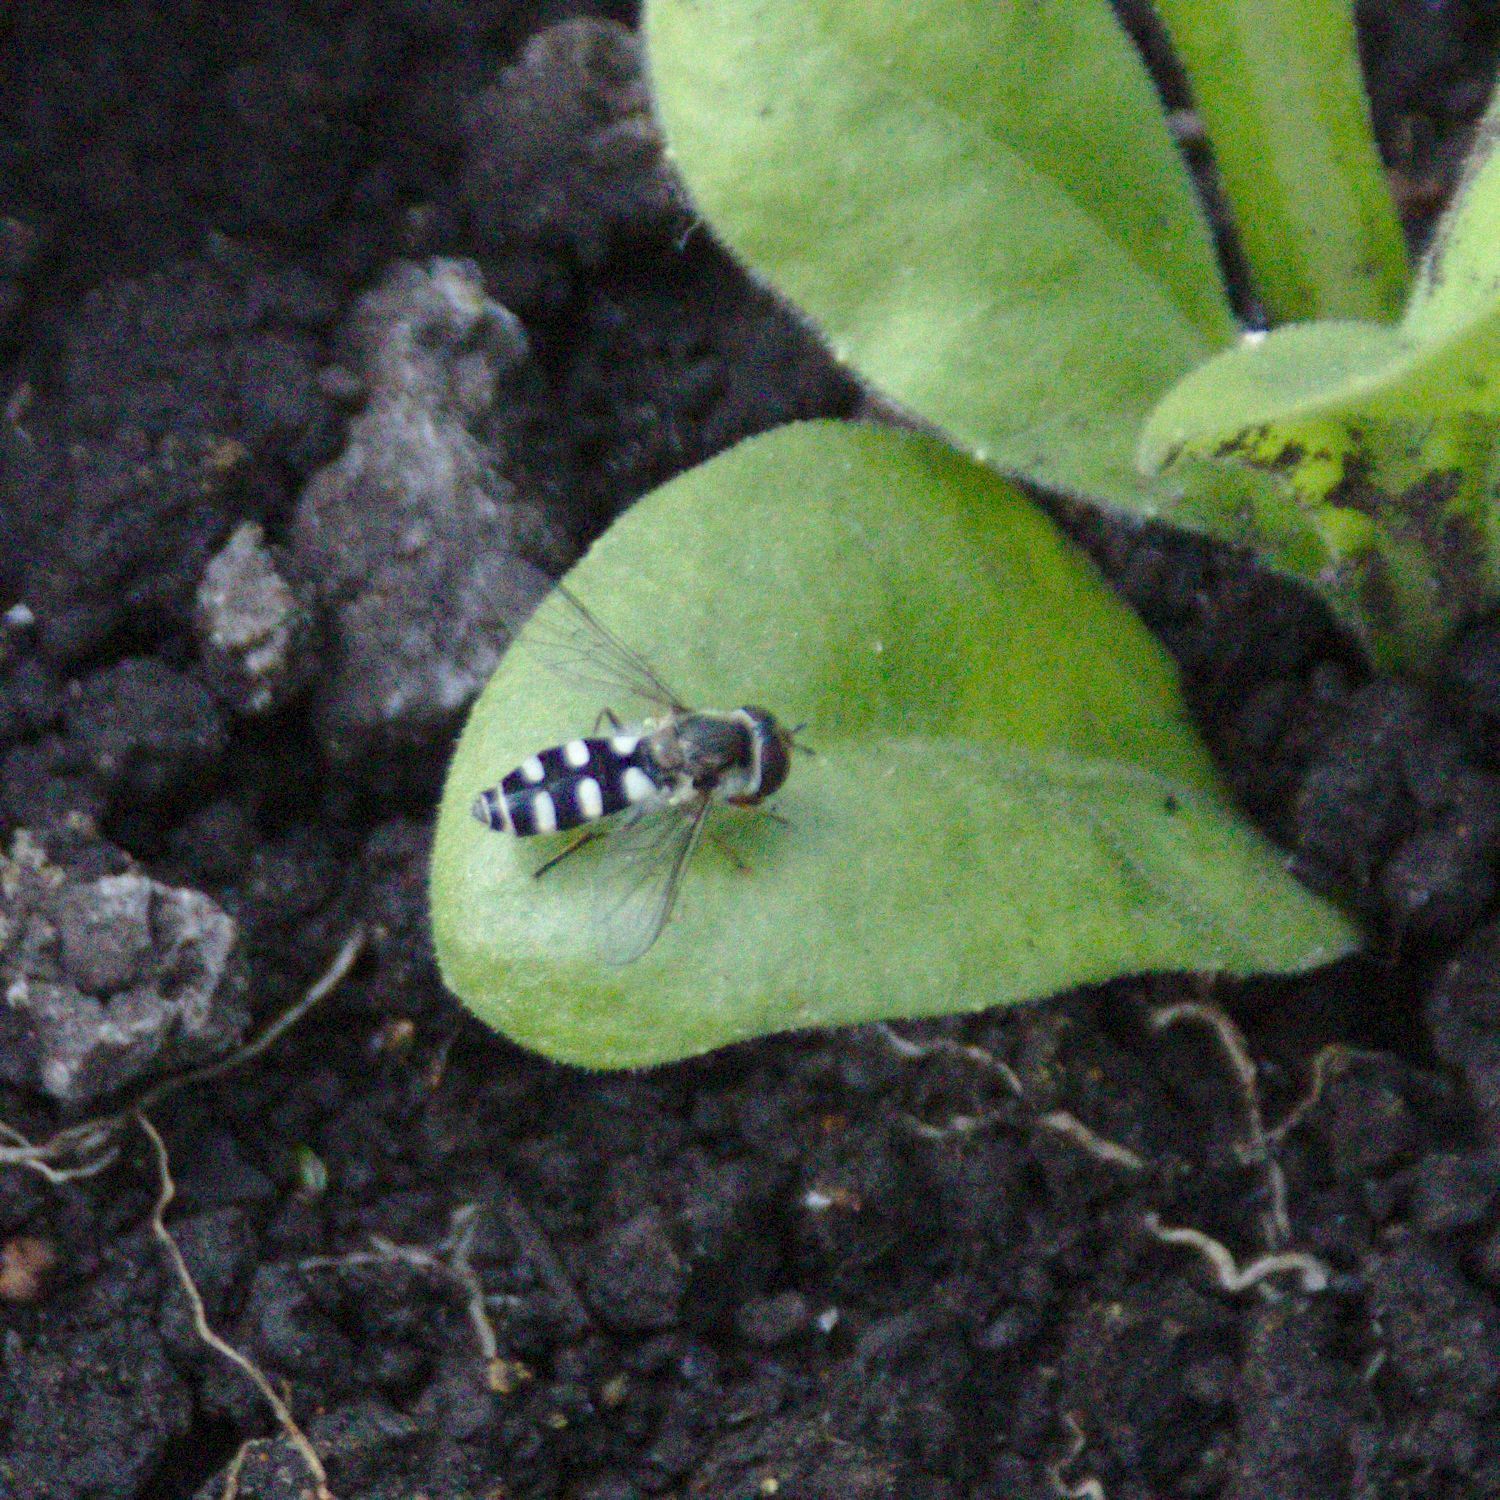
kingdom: Animalia
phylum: Arthropoda
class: Insecta
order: Diptera
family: Syrphidae
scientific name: Syrphidae
